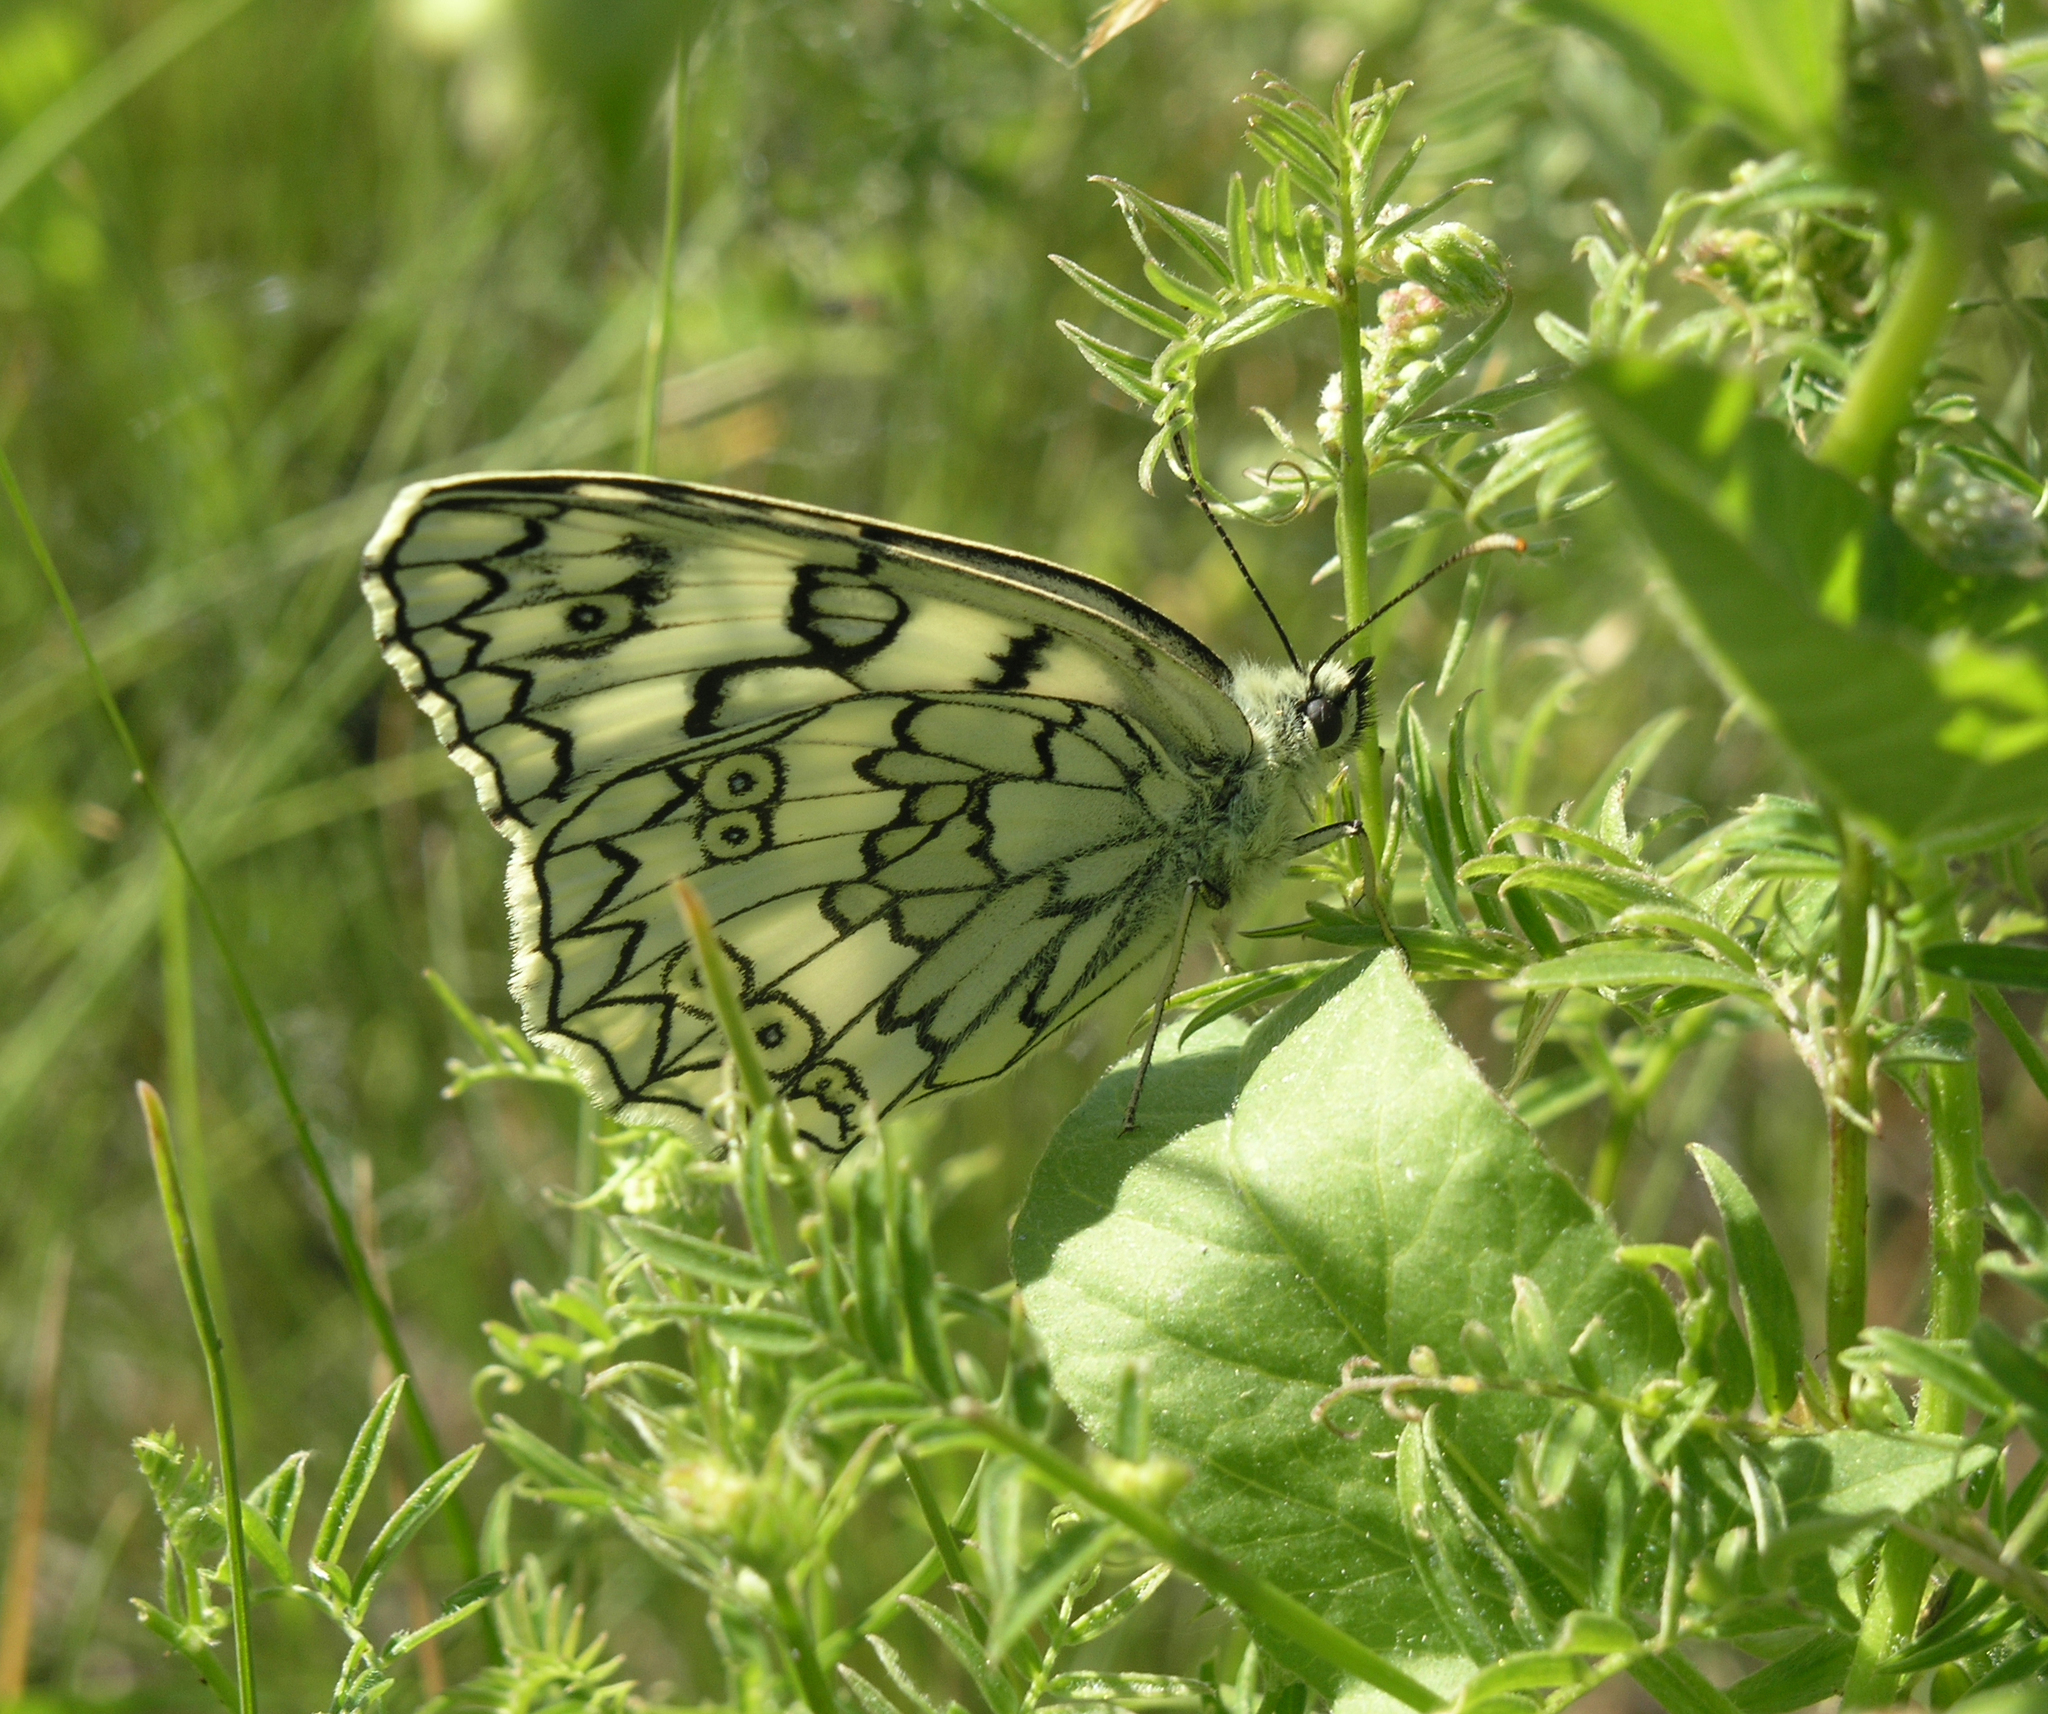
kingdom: Animalia
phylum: Arthropoda
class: Insecta
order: Lepidoptera
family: Nymphalidae
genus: Melanargia
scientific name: Melanargia japygia
